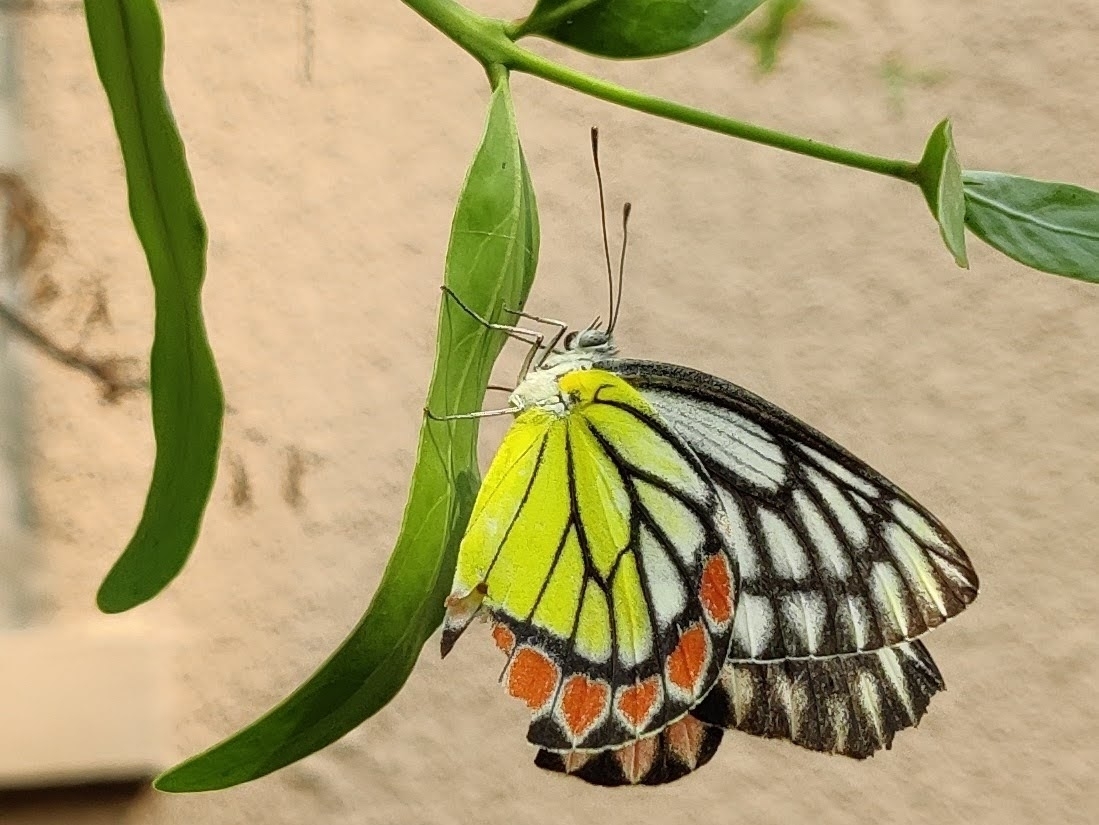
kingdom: Animalia
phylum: Arthropoda
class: Insecta
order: Lepidoptera
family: Pieridae
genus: Delias
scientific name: Delias eucharis
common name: Common jezebel
